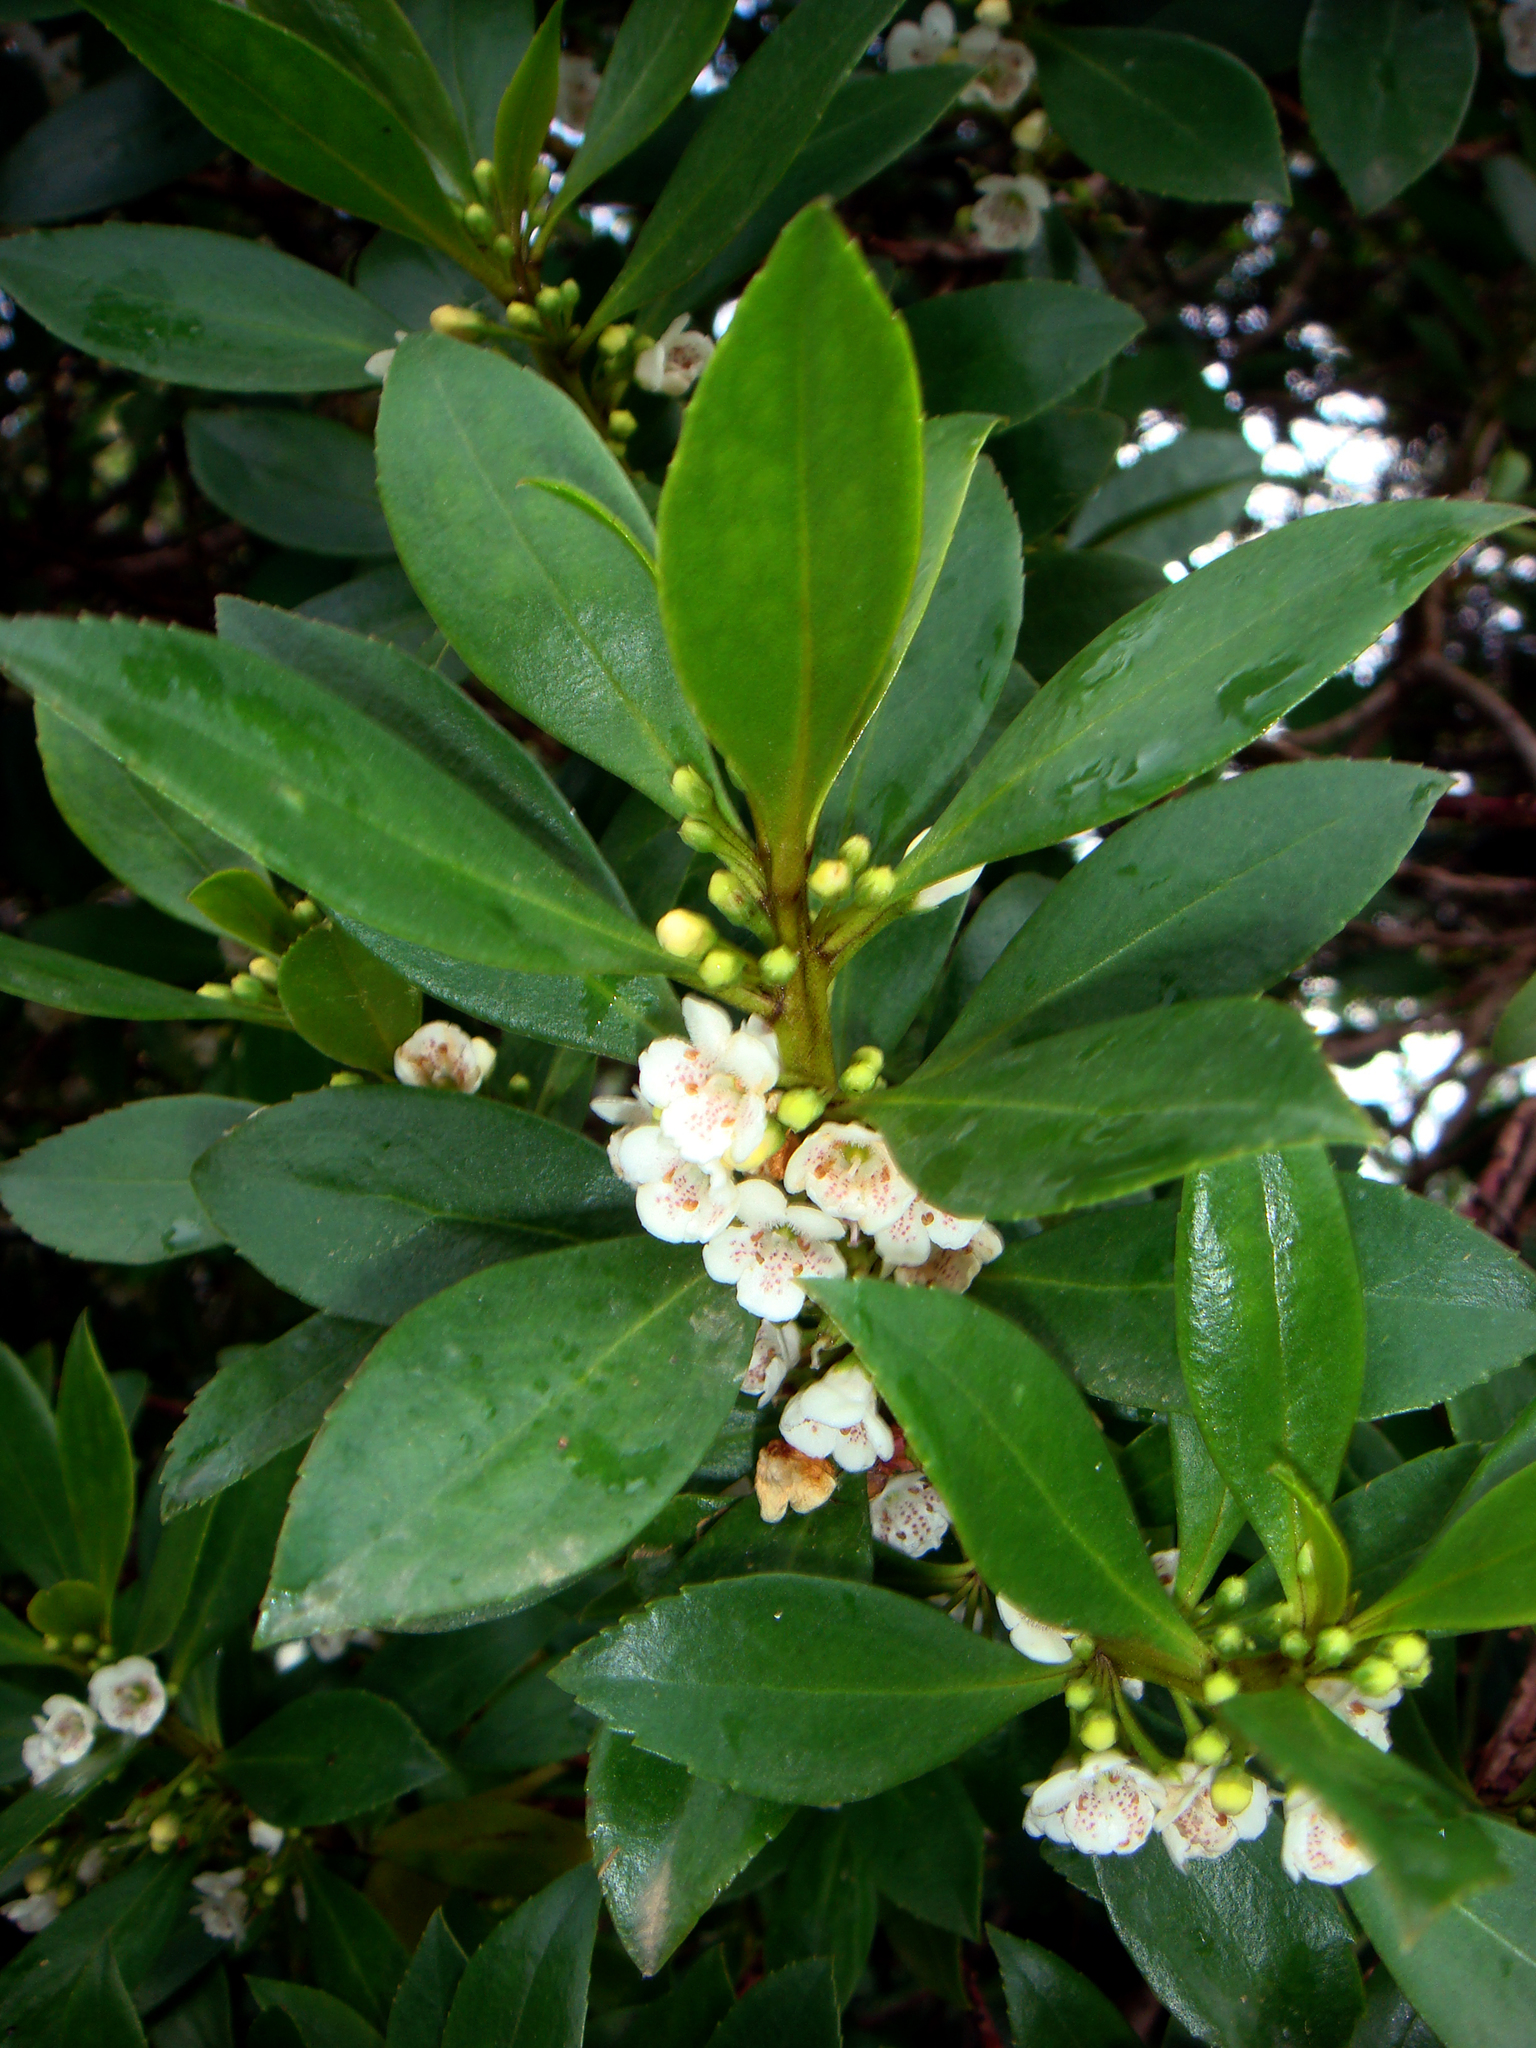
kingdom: Plantae
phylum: Tracheophyta
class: Magnoliopsida
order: Lamiales
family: Scrophulariaceae
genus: Myoporum
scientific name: Myoporum insulare
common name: Common boobialla
